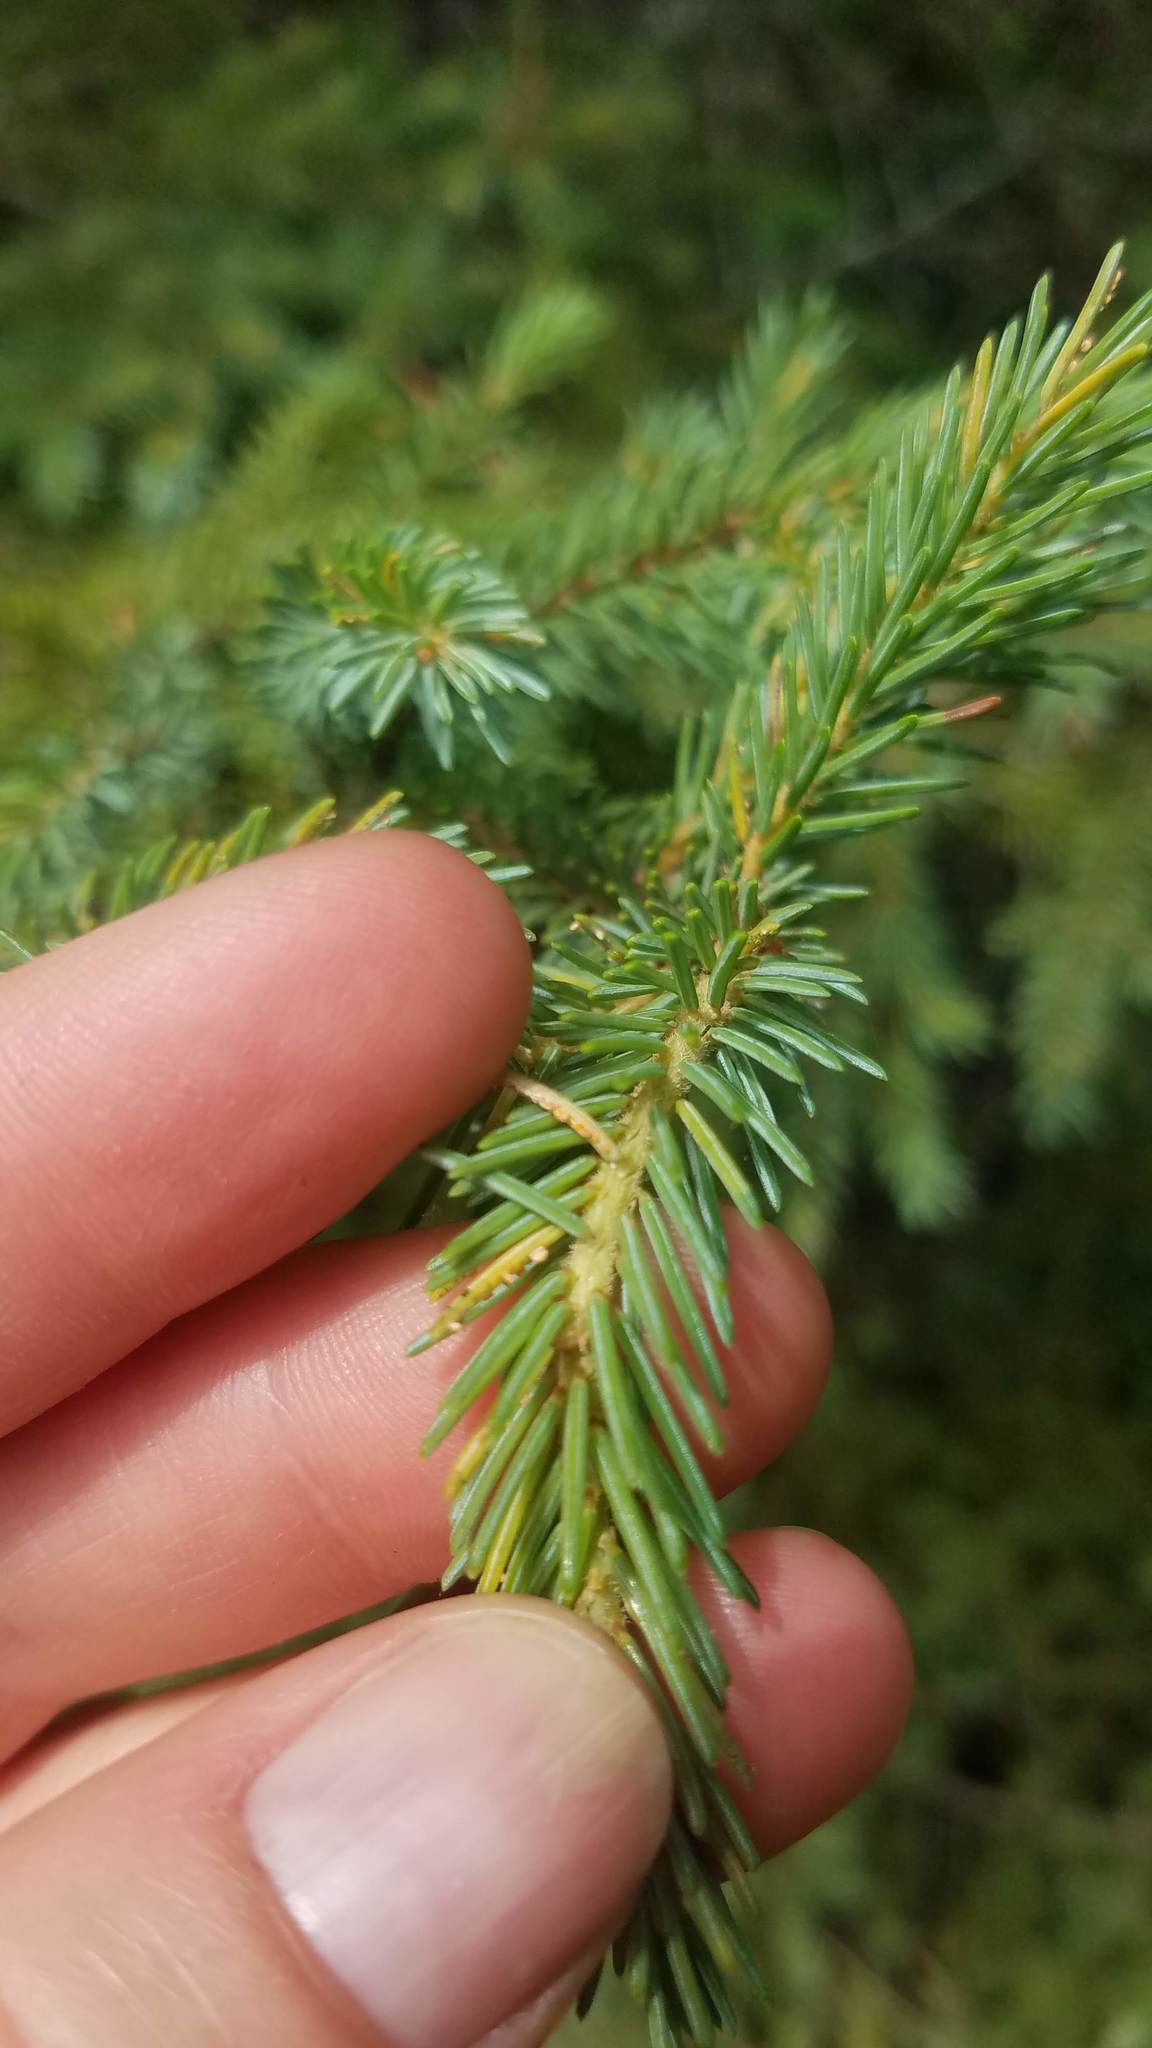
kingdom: Plantae
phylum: Tracheophyta
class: Pinopsida
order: Pinales
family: Pinaceae
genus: Picea
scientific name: Picea mariana
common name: Black spruce
